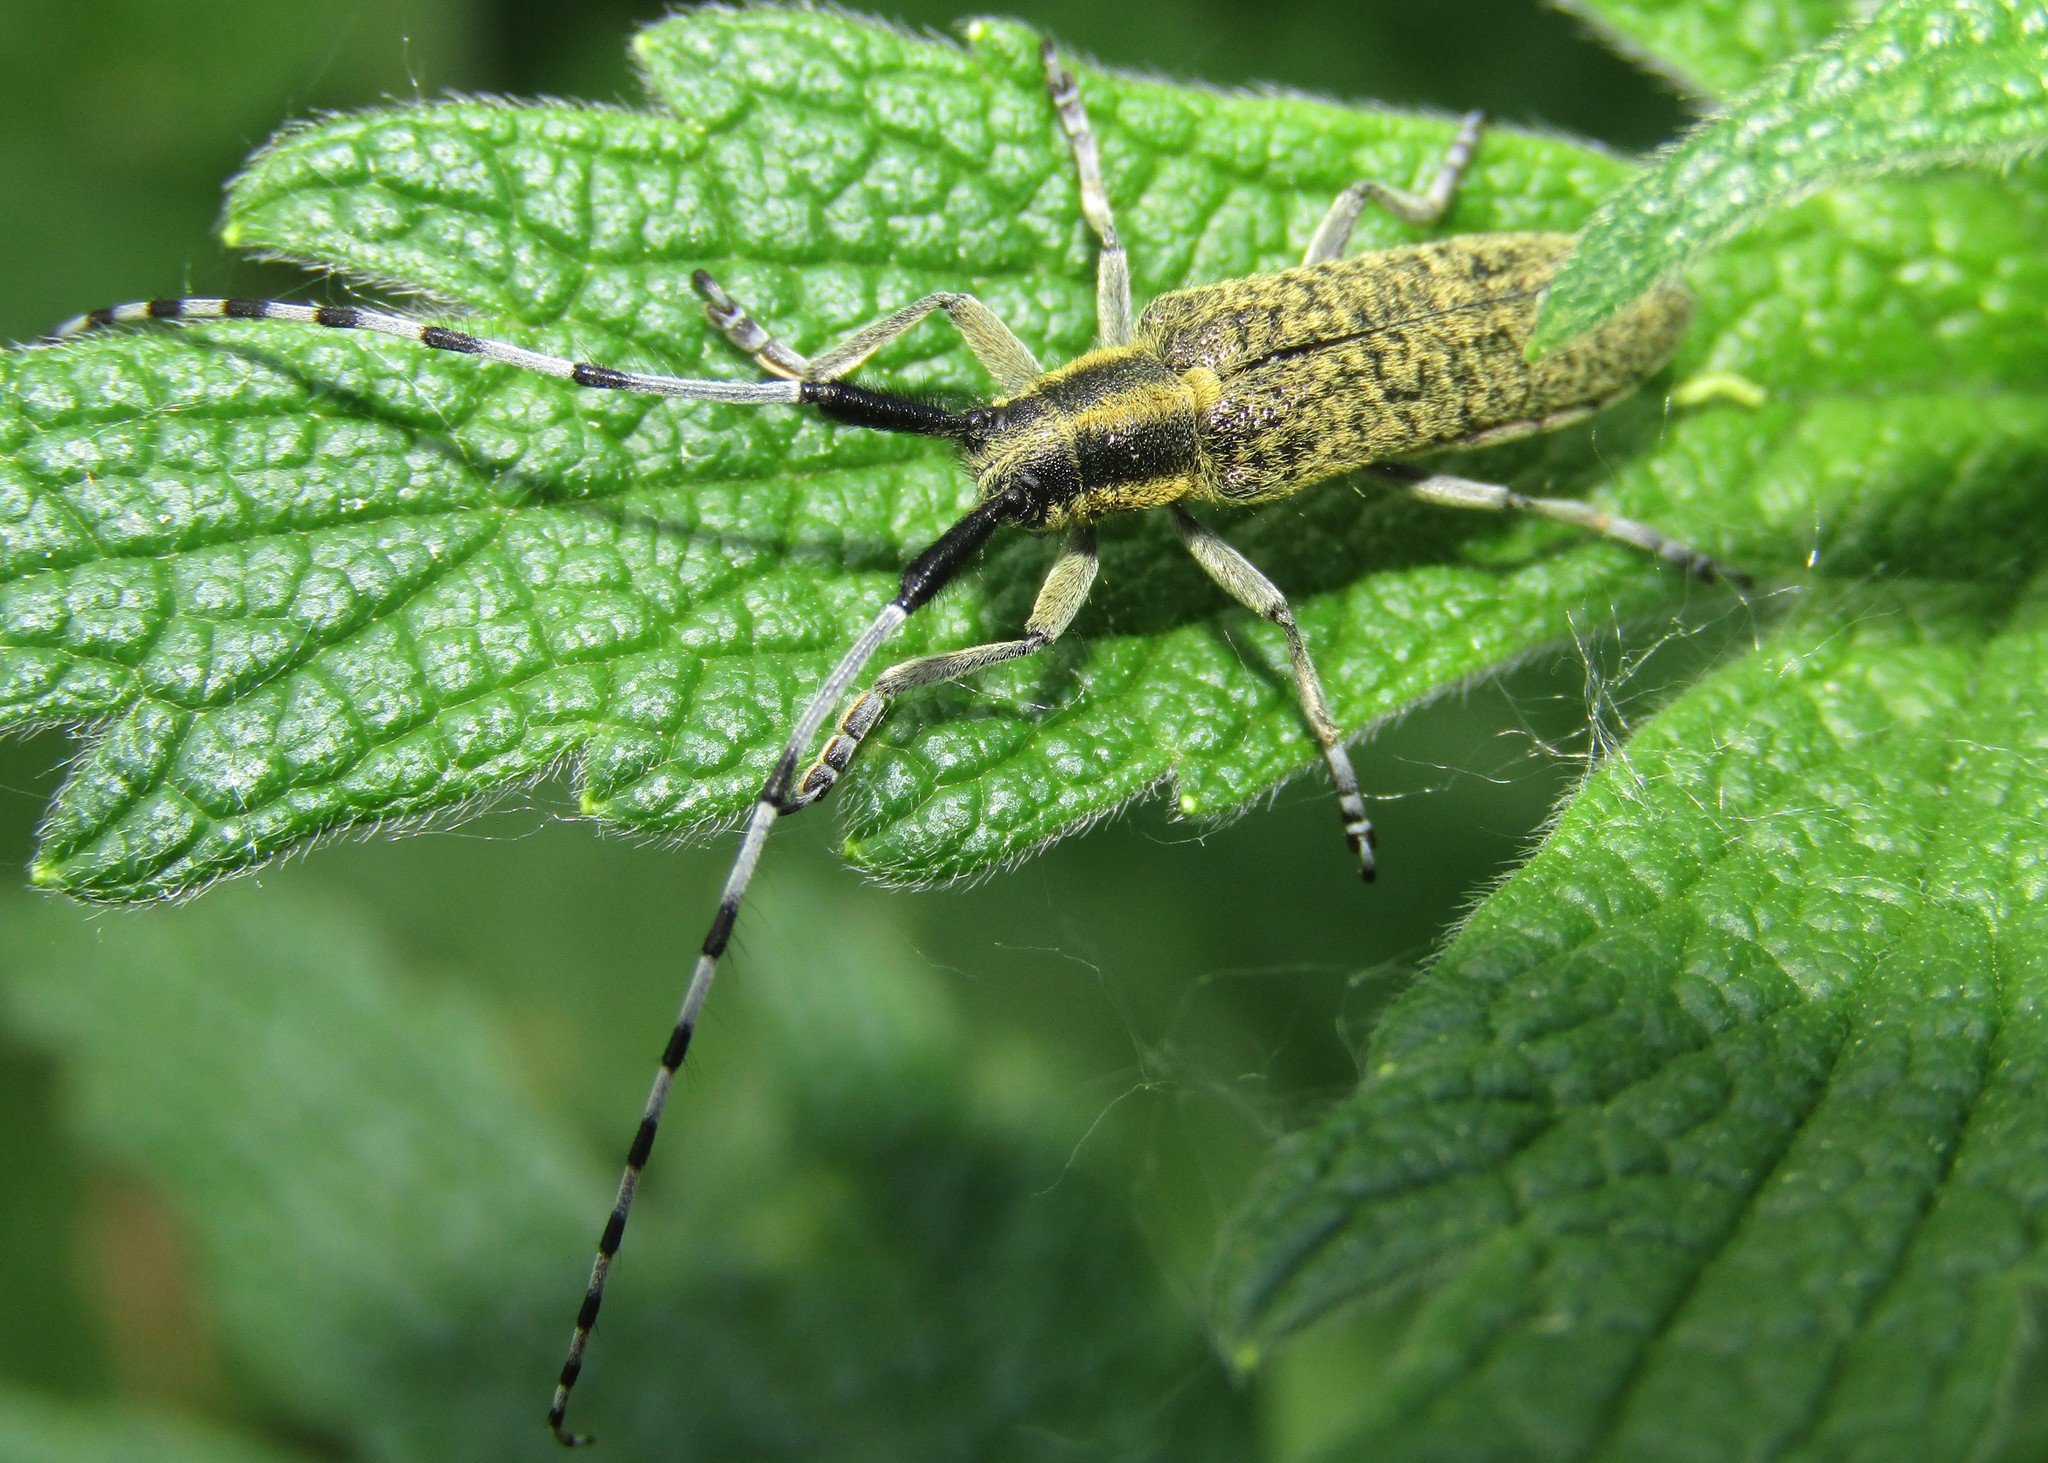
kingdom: Animalia
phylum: Arthropoda
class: Insecta
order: Coleoptera
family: Cerambycidae
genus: Agapanthia
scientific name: Agapanthia villosoviridescens
